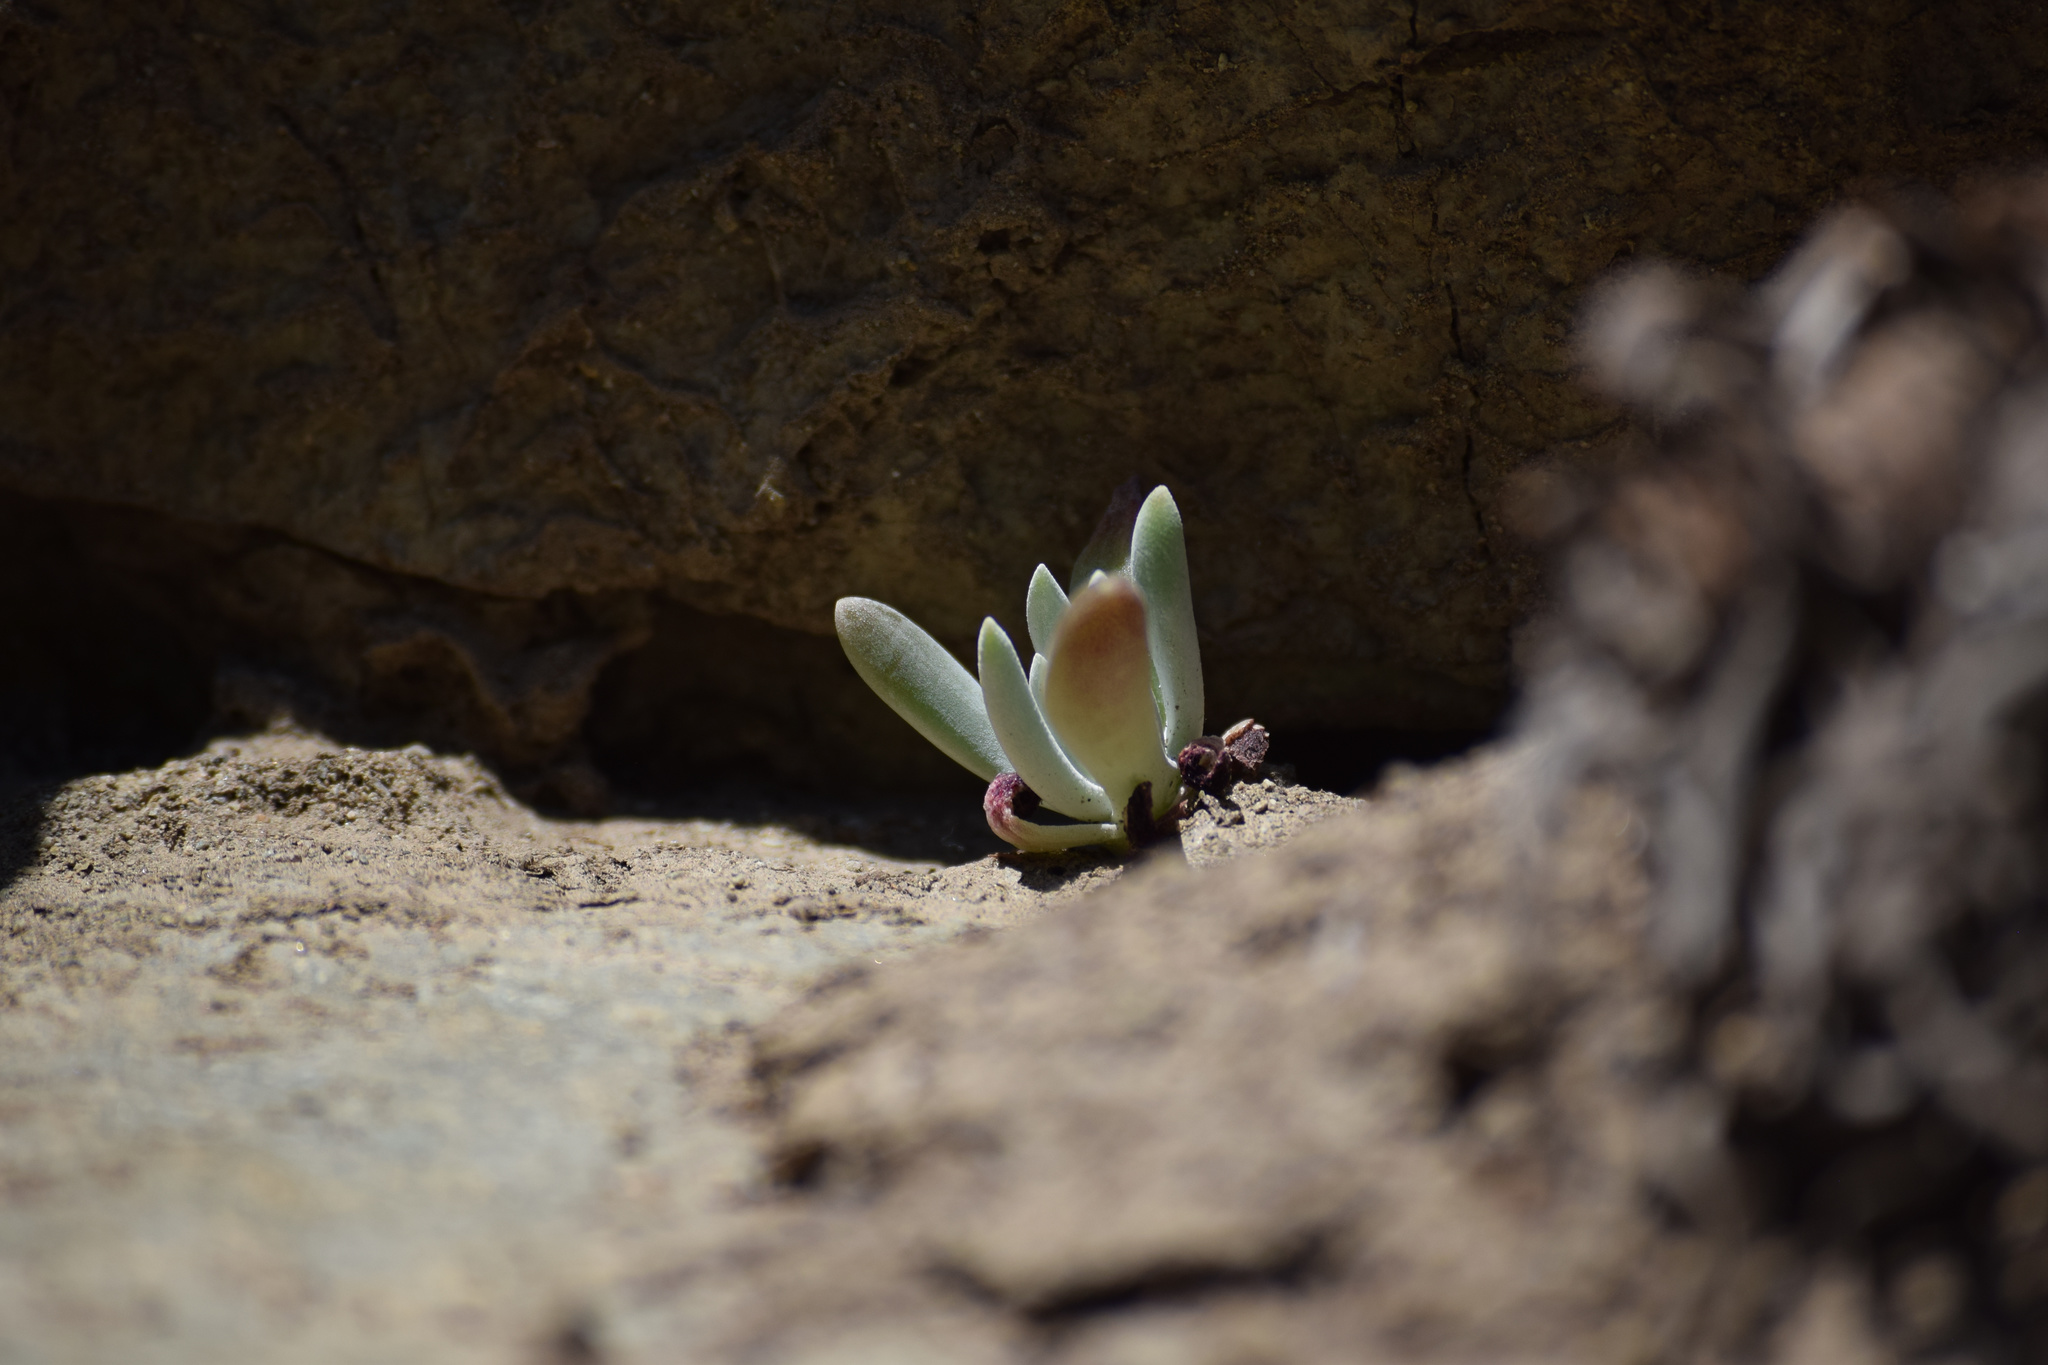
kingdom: Plantae
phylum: Tracheophyta
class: Magnoliopsida
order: Saxifragales
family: Crassulaceae
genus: Dudleya
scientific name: Dudleya densiflora
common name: San gabriel mountains dudleya
